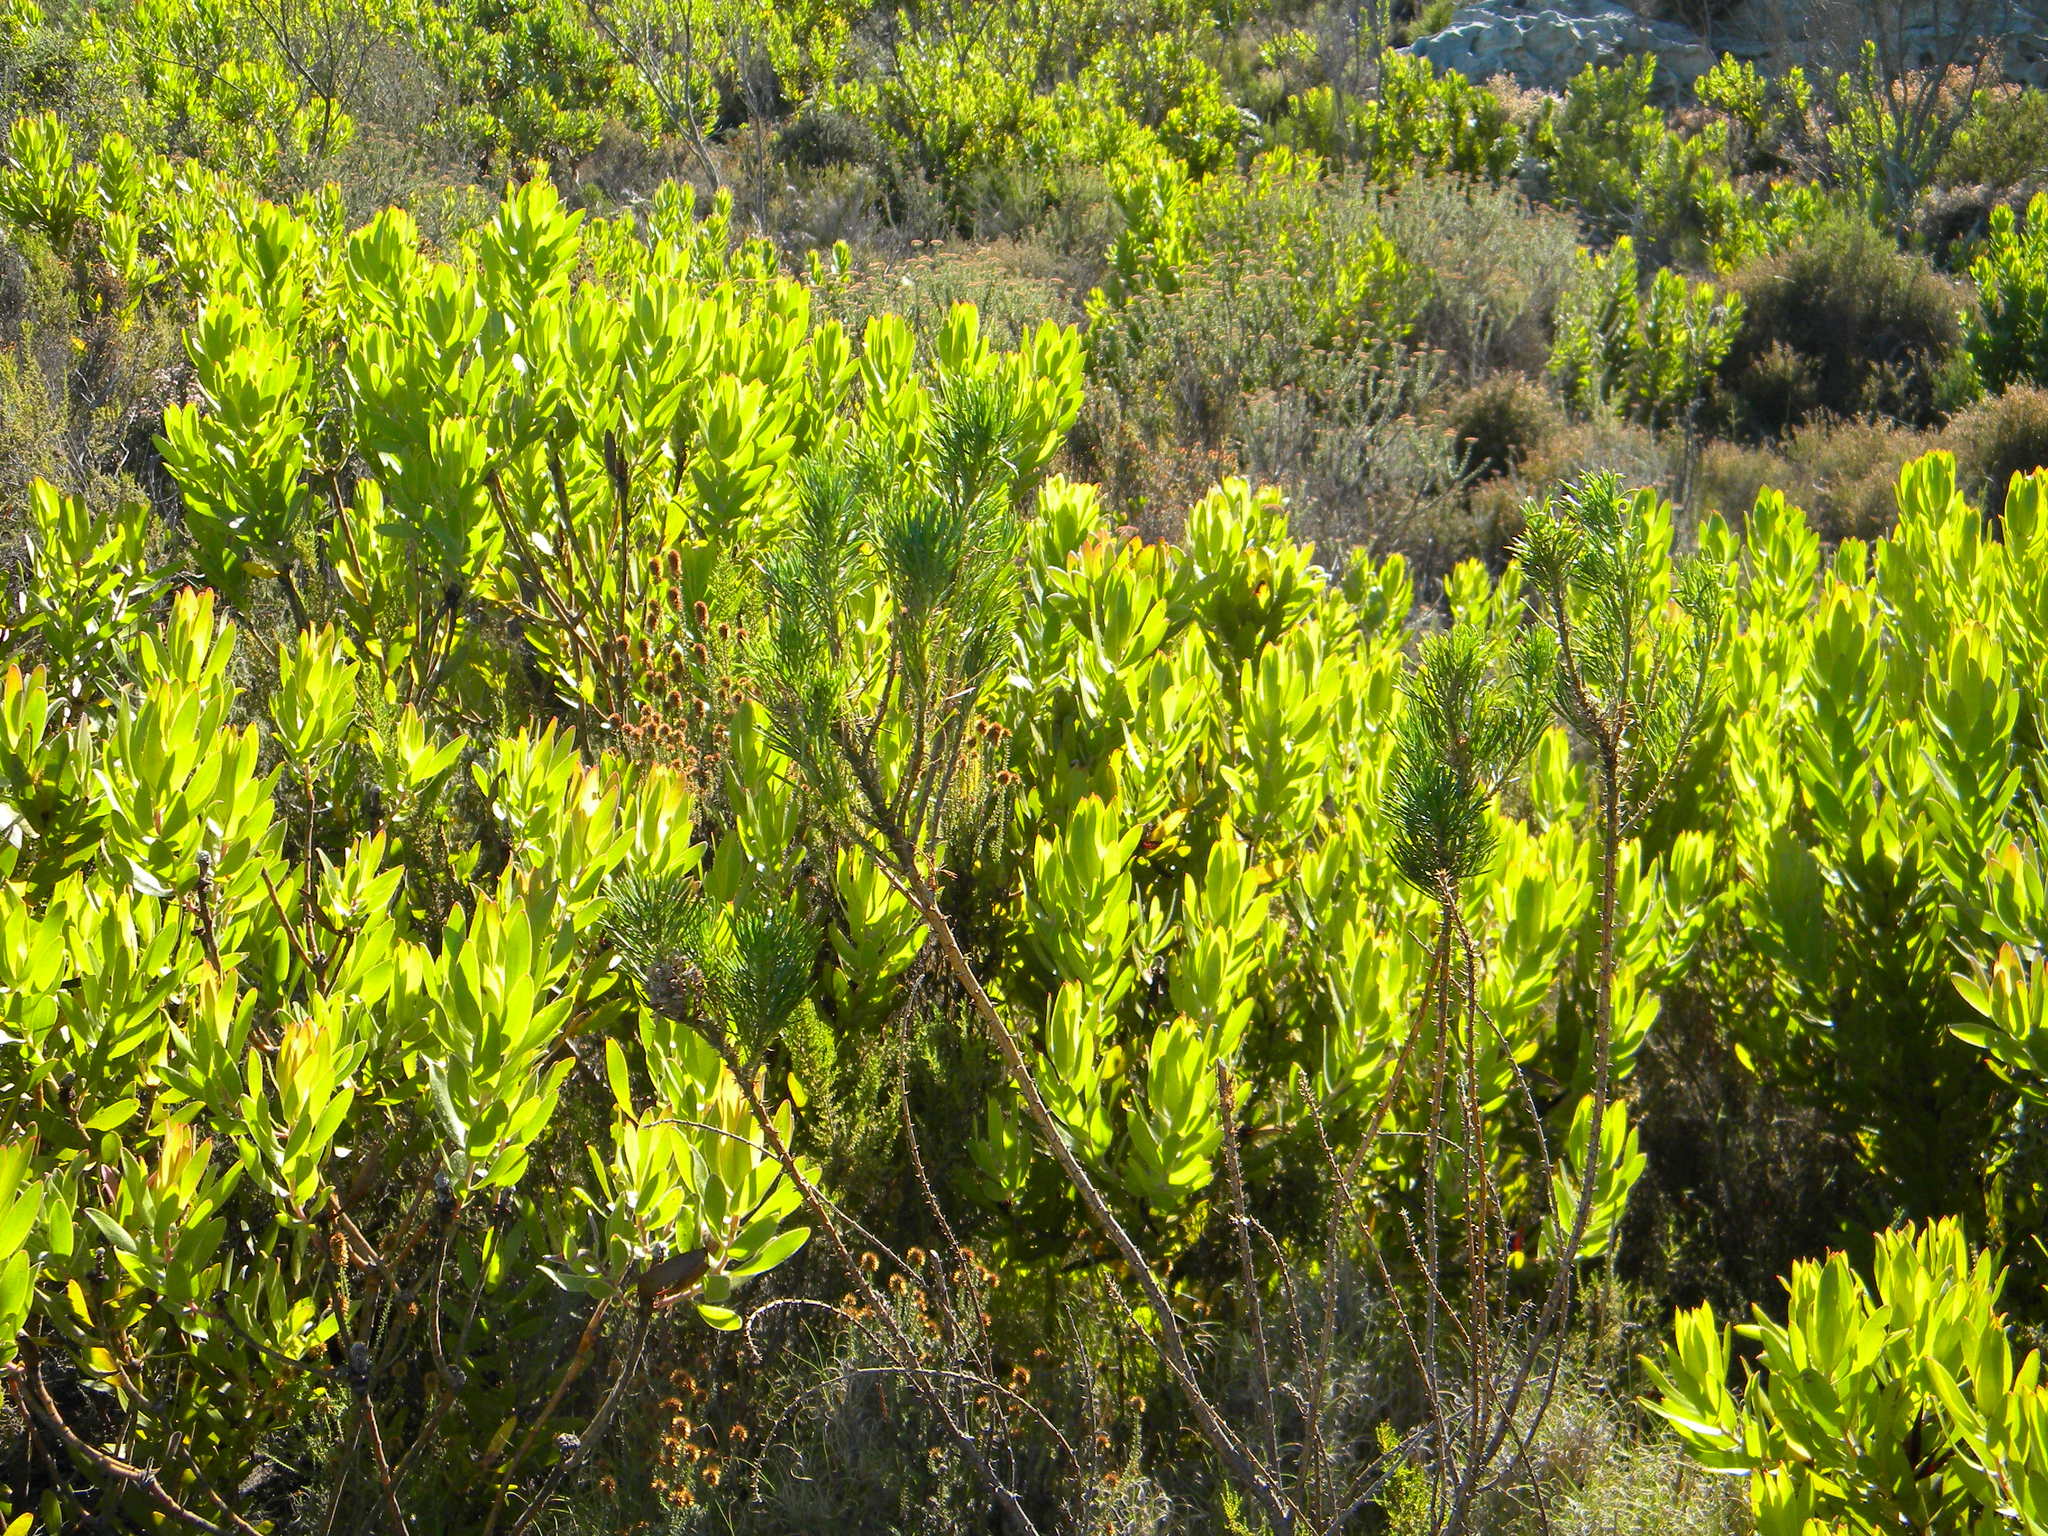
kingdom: Plantae
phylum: Tracheophyta
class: Magnoliopsida
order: Fabales
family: Fabaceae
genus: Psoralea
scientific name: Psoralea pinnata
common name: African scurfpea
